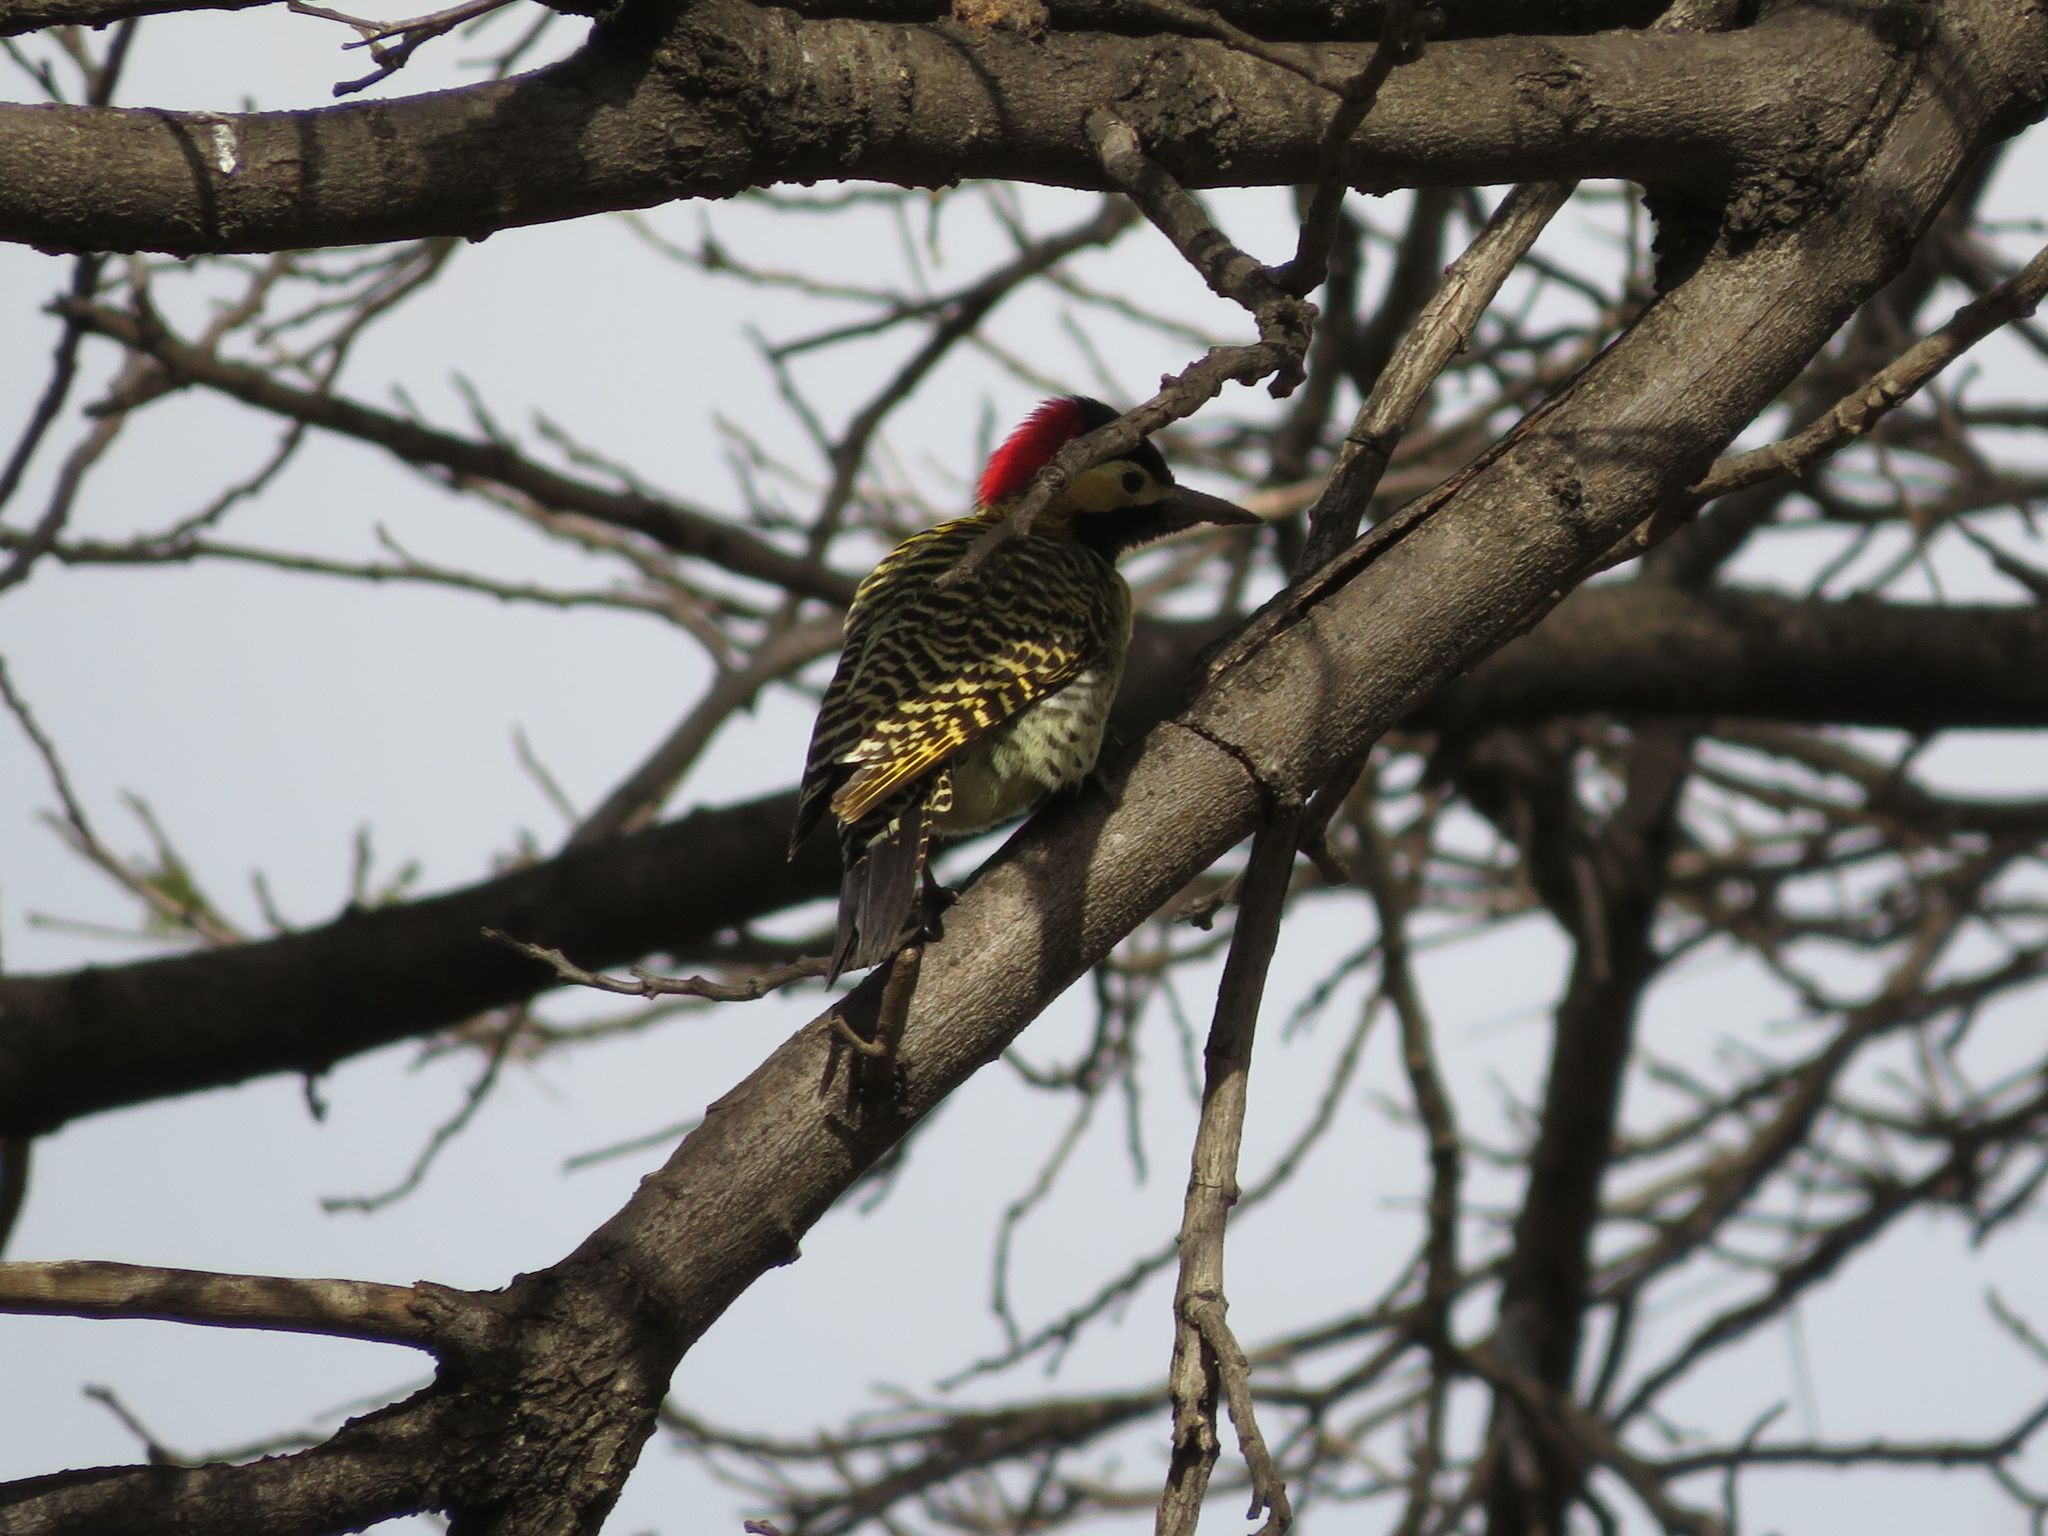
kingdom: Animalia
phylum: Chordata
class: Aves
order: Piciformes
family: Picidae
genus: Colaptes
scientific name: Colaptes melanochloros
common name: Green-barred woodpecker
